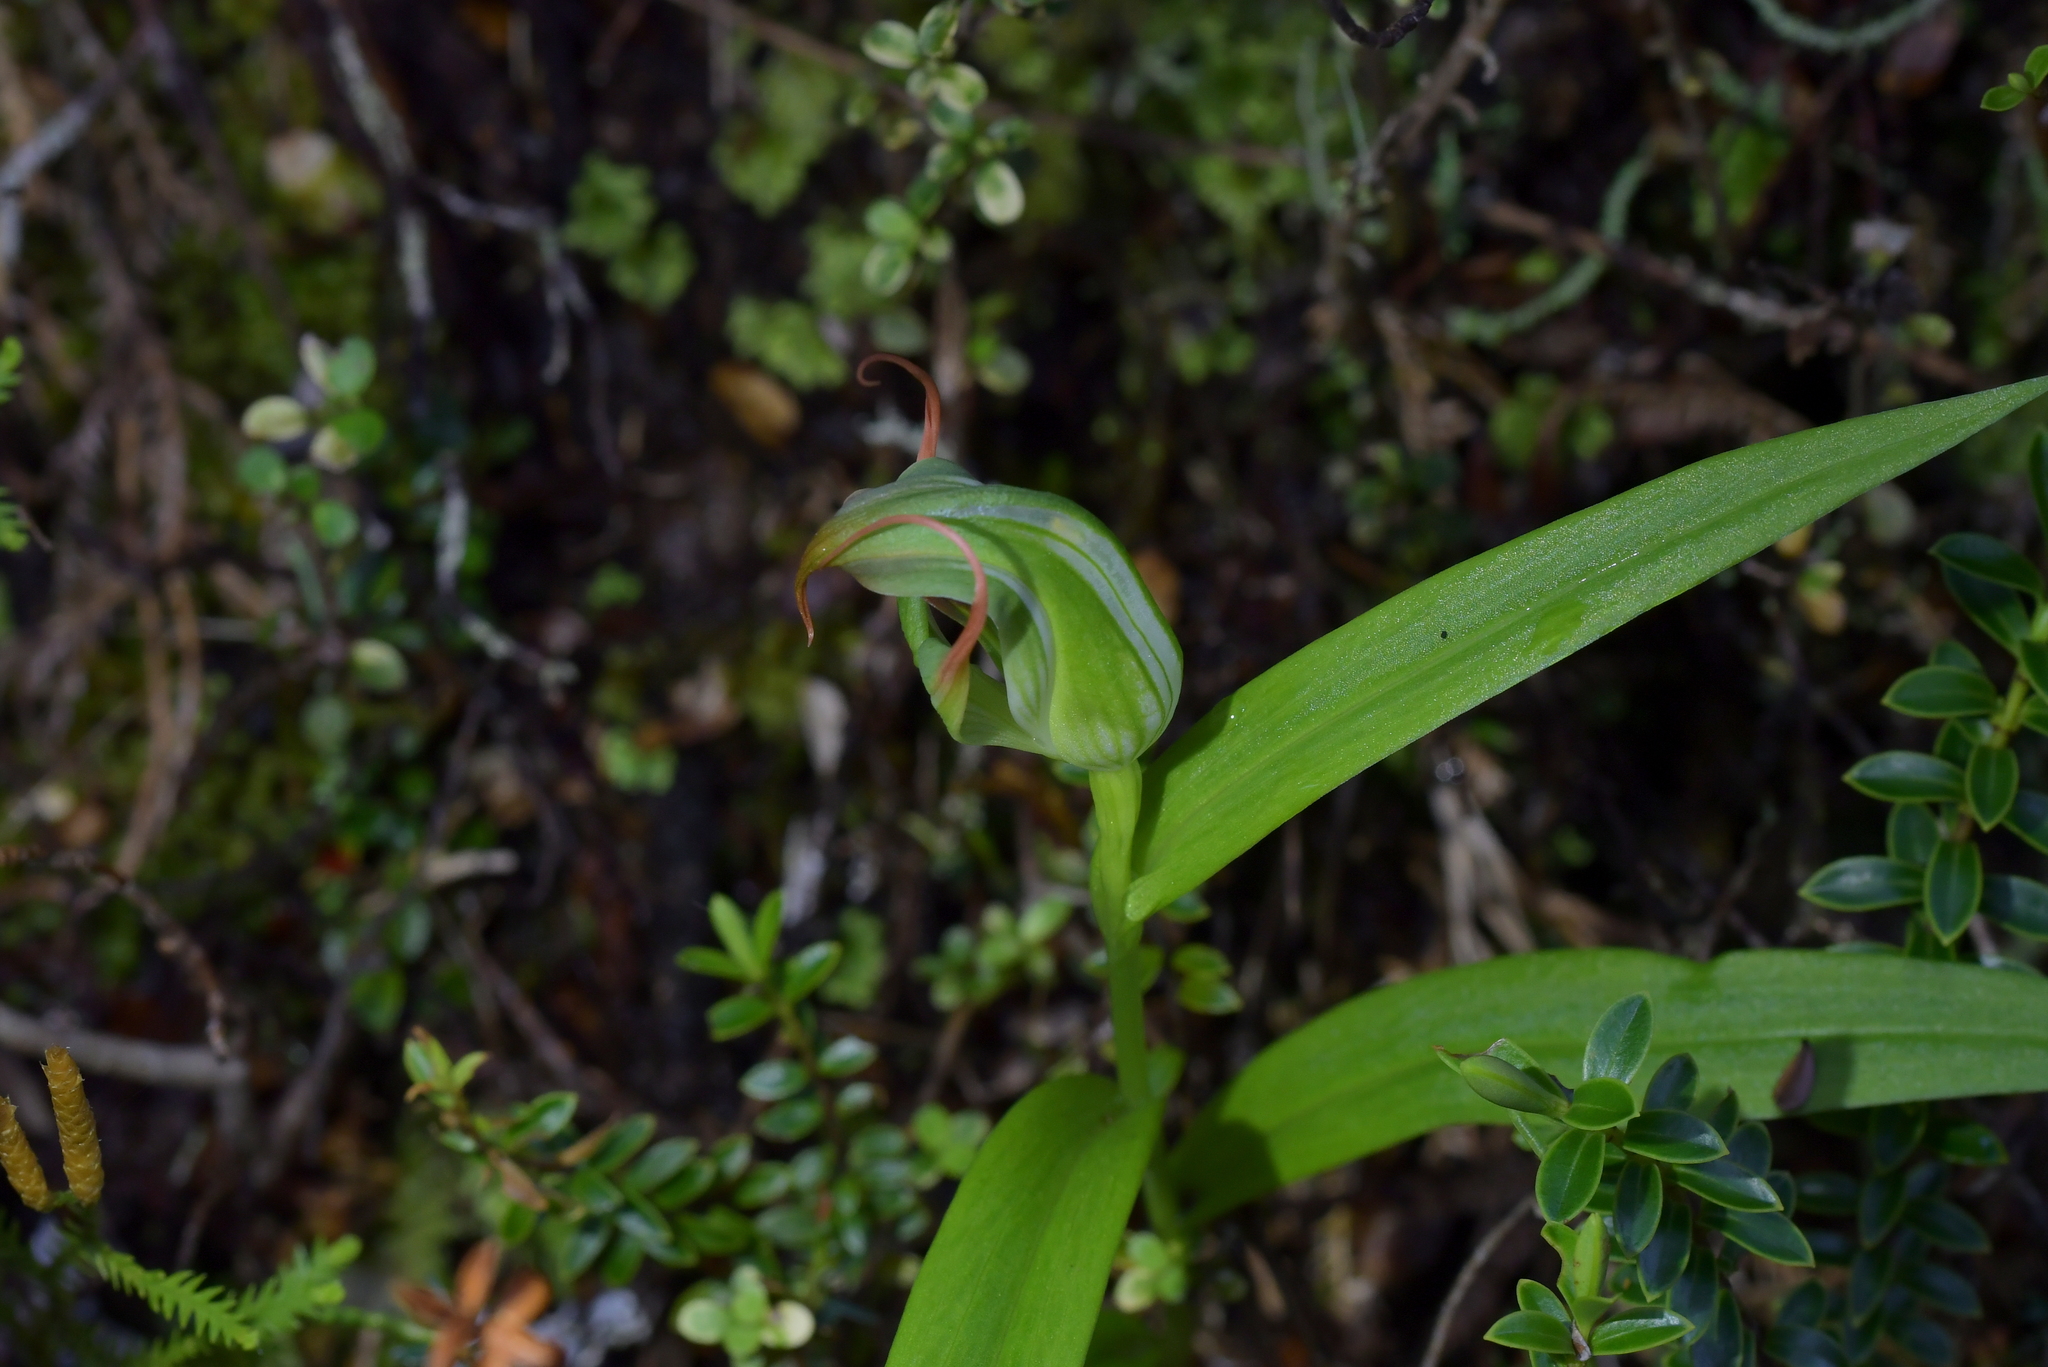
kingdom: Plantae
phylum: Tracheophyta
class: Liliopsida
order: Asparagales
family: Orchidaceae
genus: Pterostylis
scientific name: Pterostylis patens
